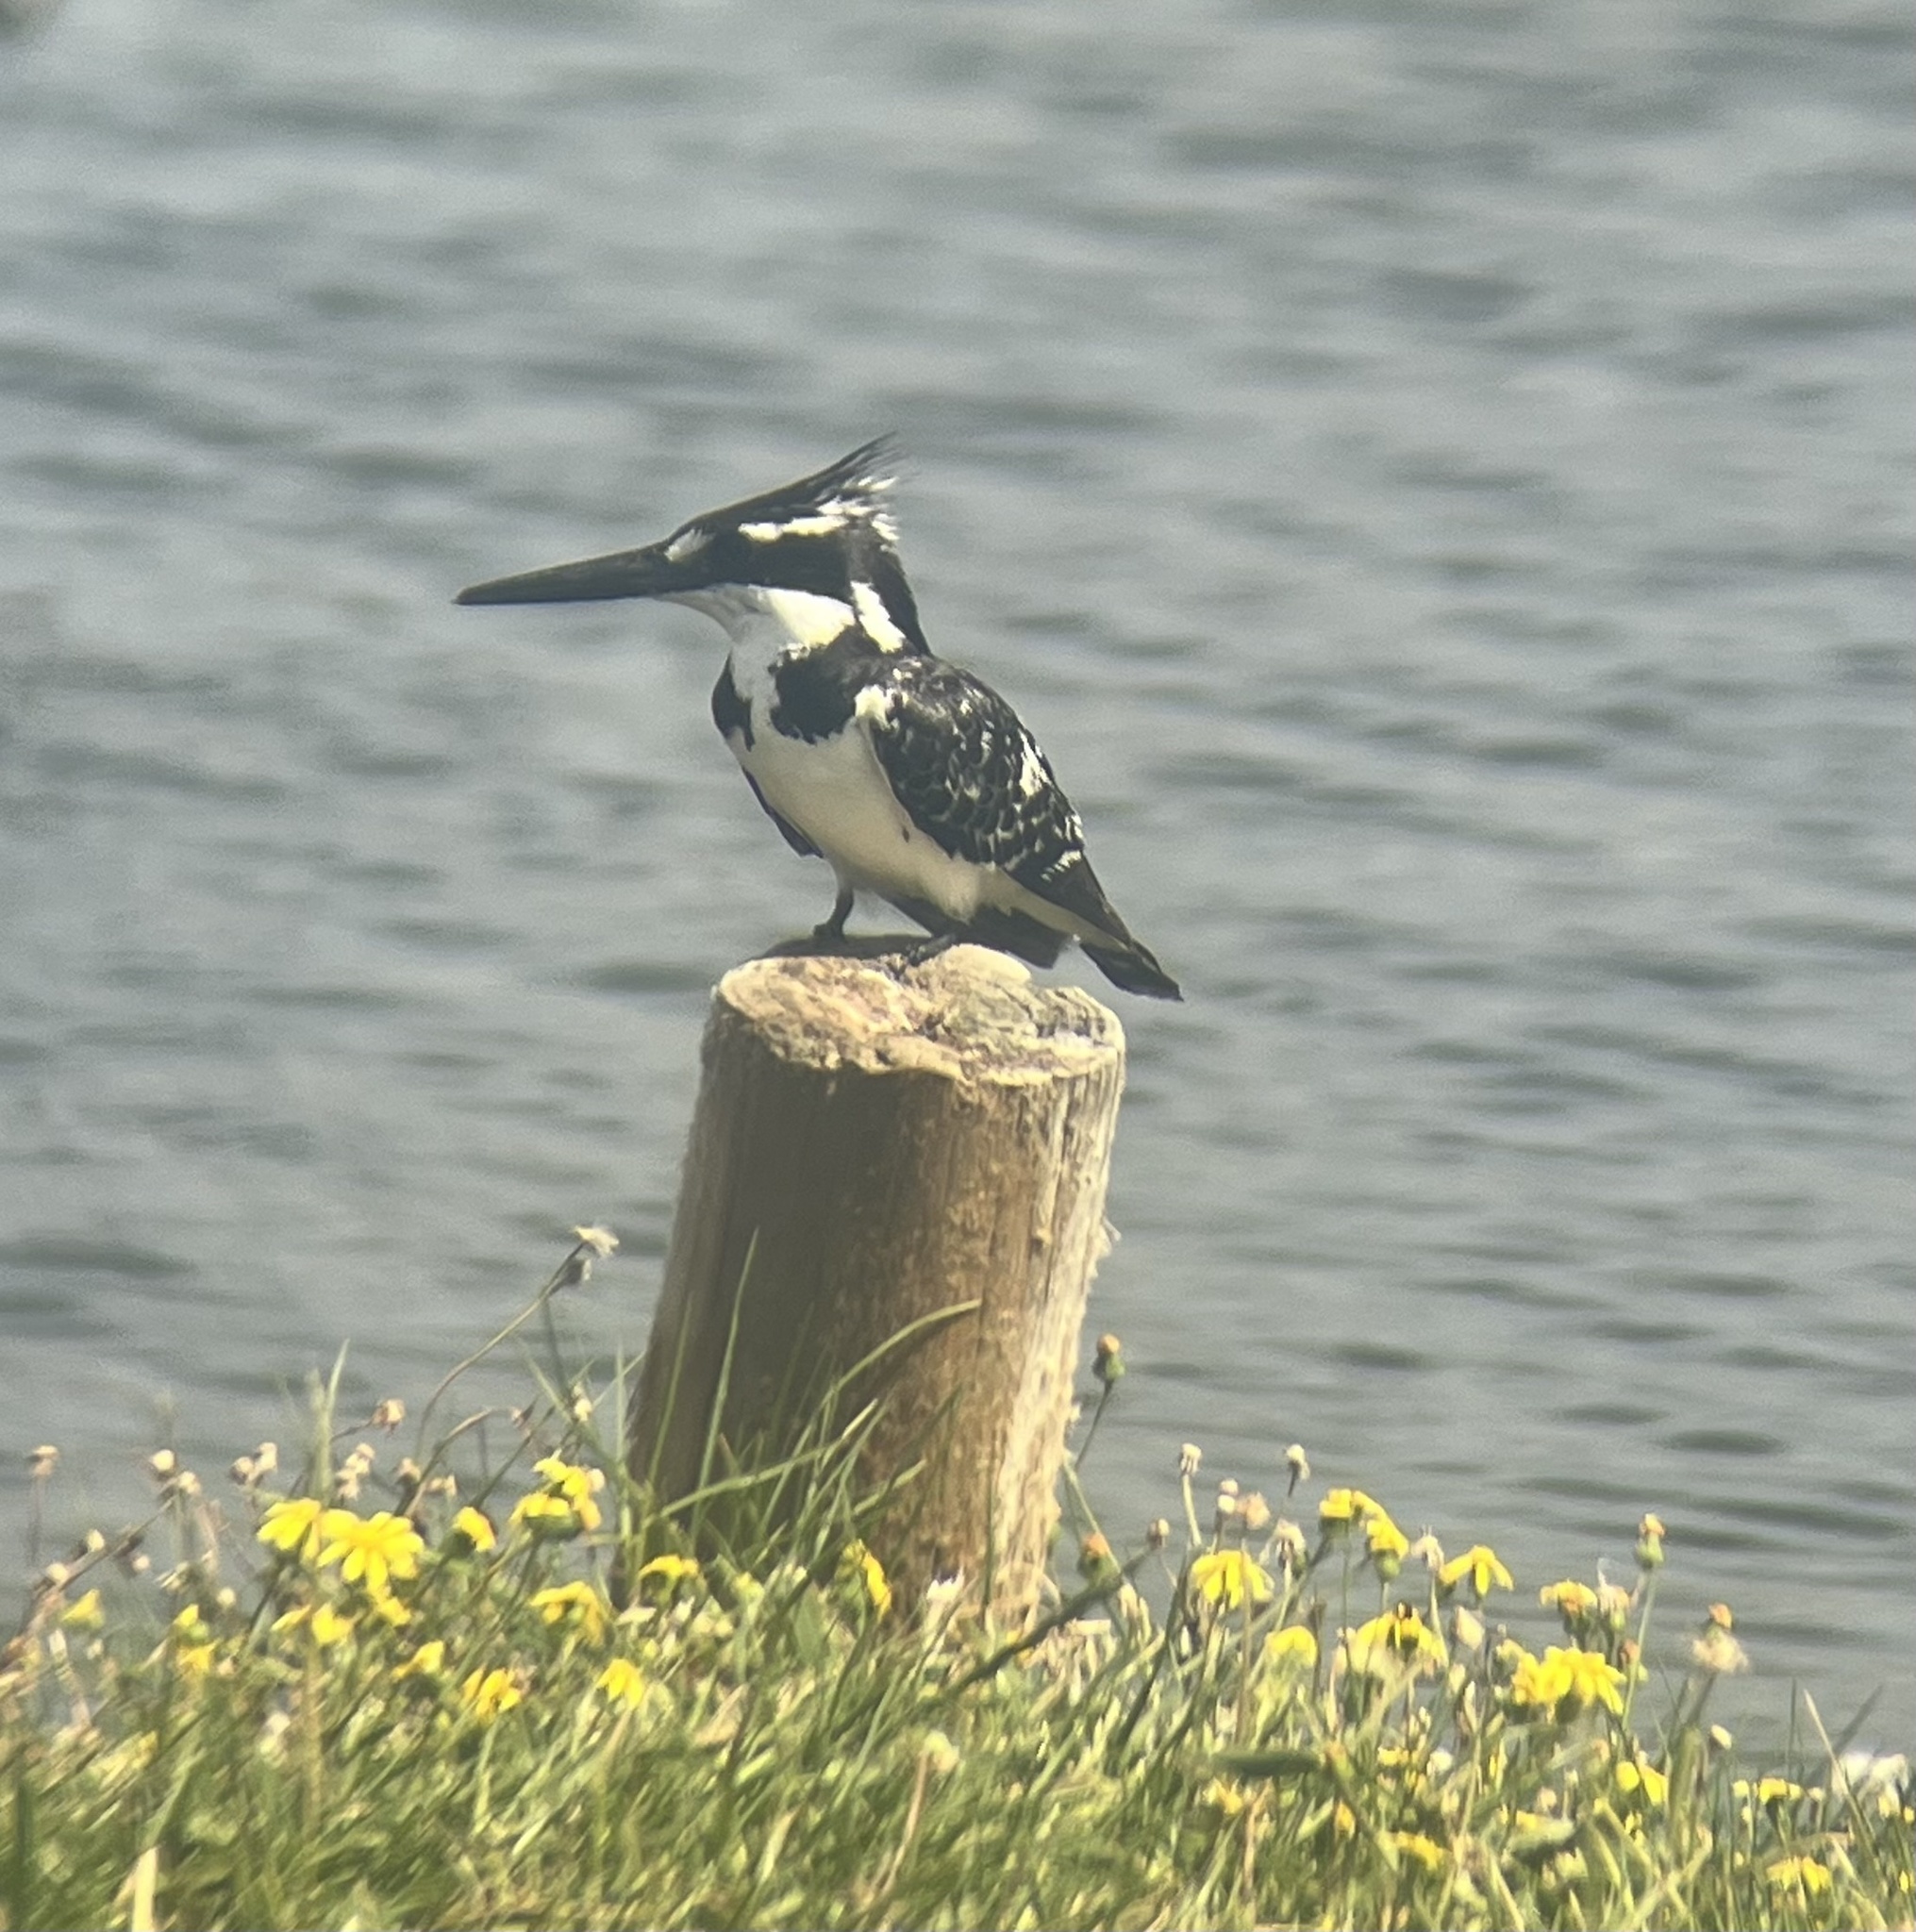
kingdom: Animalia
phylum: Chordata
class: Aves
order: Coraciiformes
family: Alcedinidae
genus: Ceryle
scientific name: Ceryle rudis
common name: Pied kingfisher
